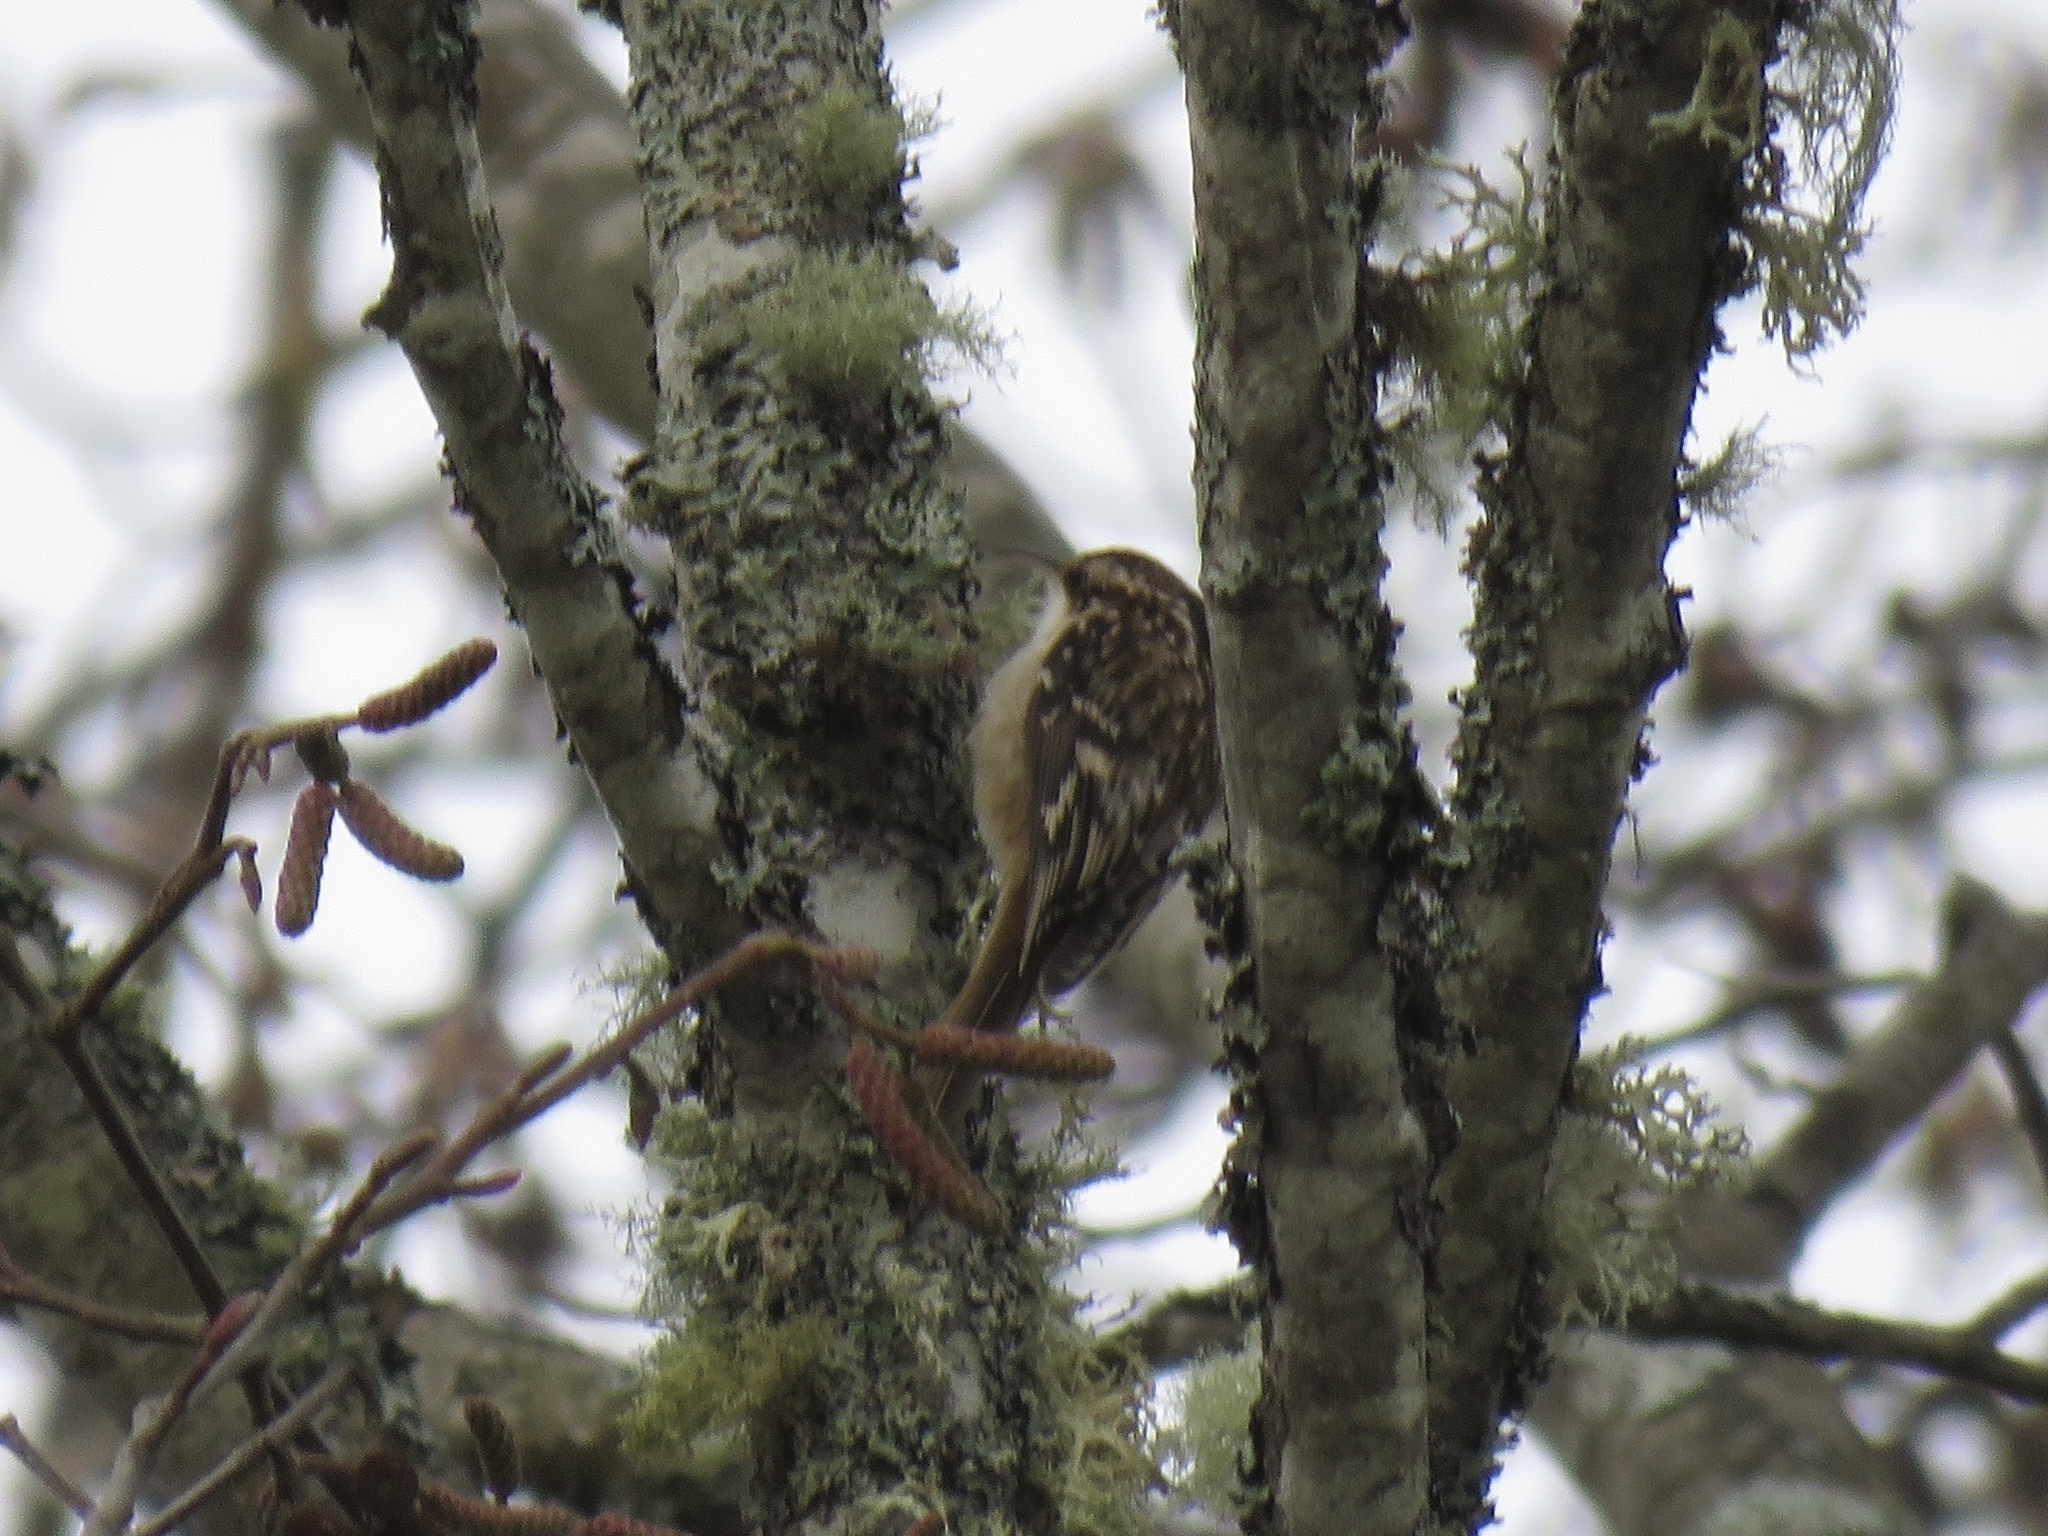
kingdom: Animalia
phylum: Chordata
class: Aves
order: Passeriformes
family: Certhiidae
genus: Certhia
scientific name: Certhia americana
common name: Brown creeper
